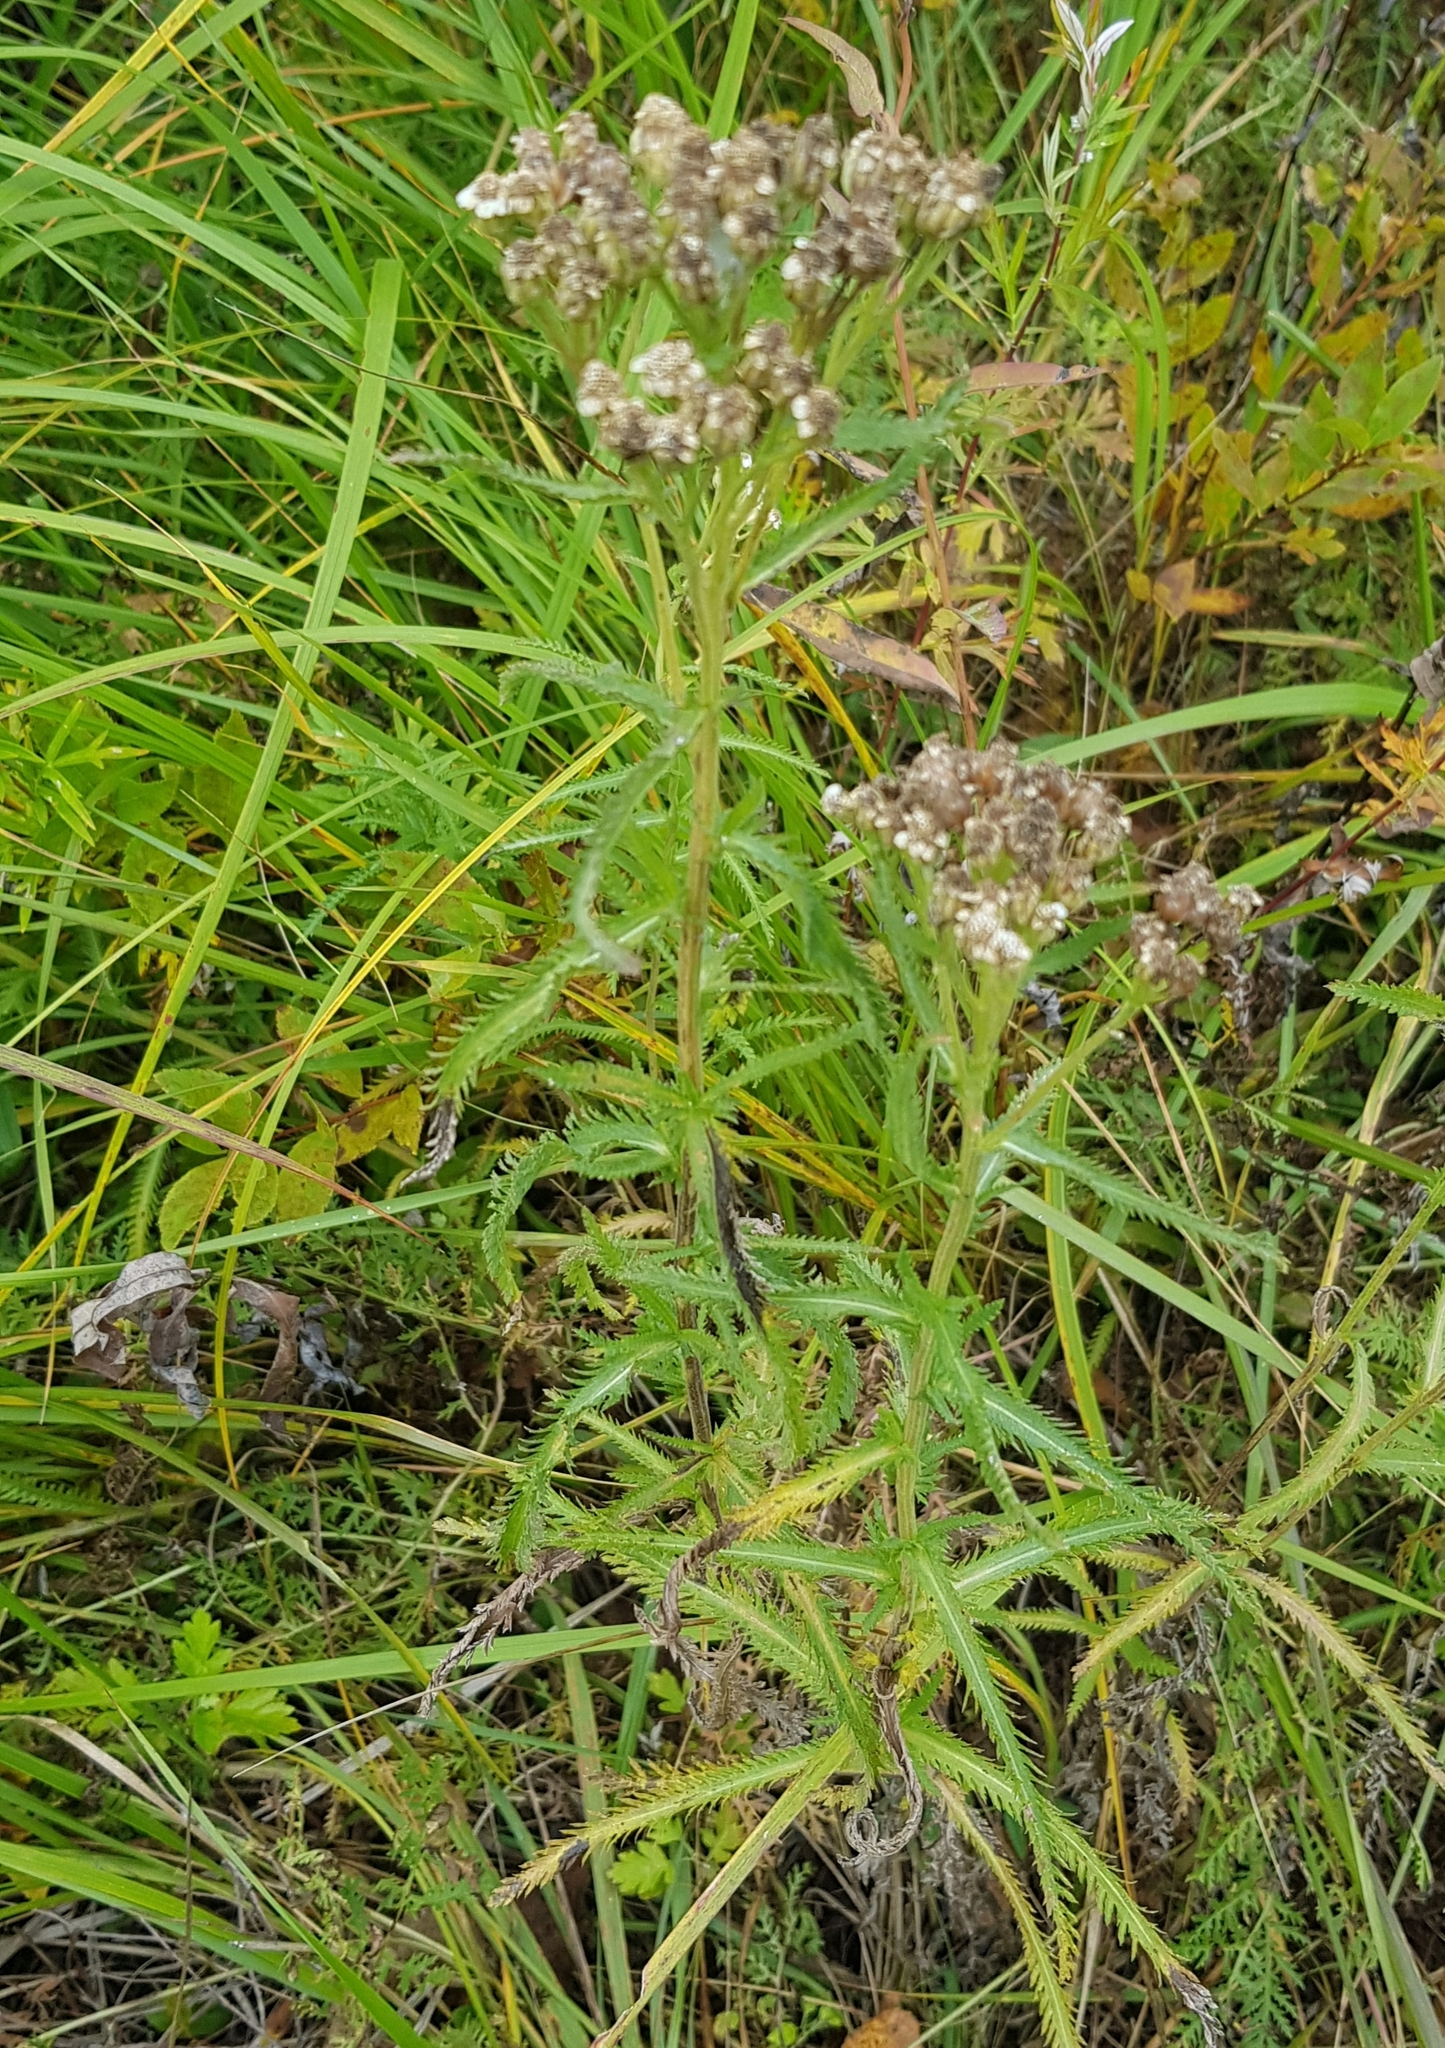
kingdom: Plantae
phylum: Tracheophyta
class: Magnoliopsida
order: Asterales
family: Asteraceae
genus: Achillea
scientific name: Achillea alpina
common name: Siberian yarrow
